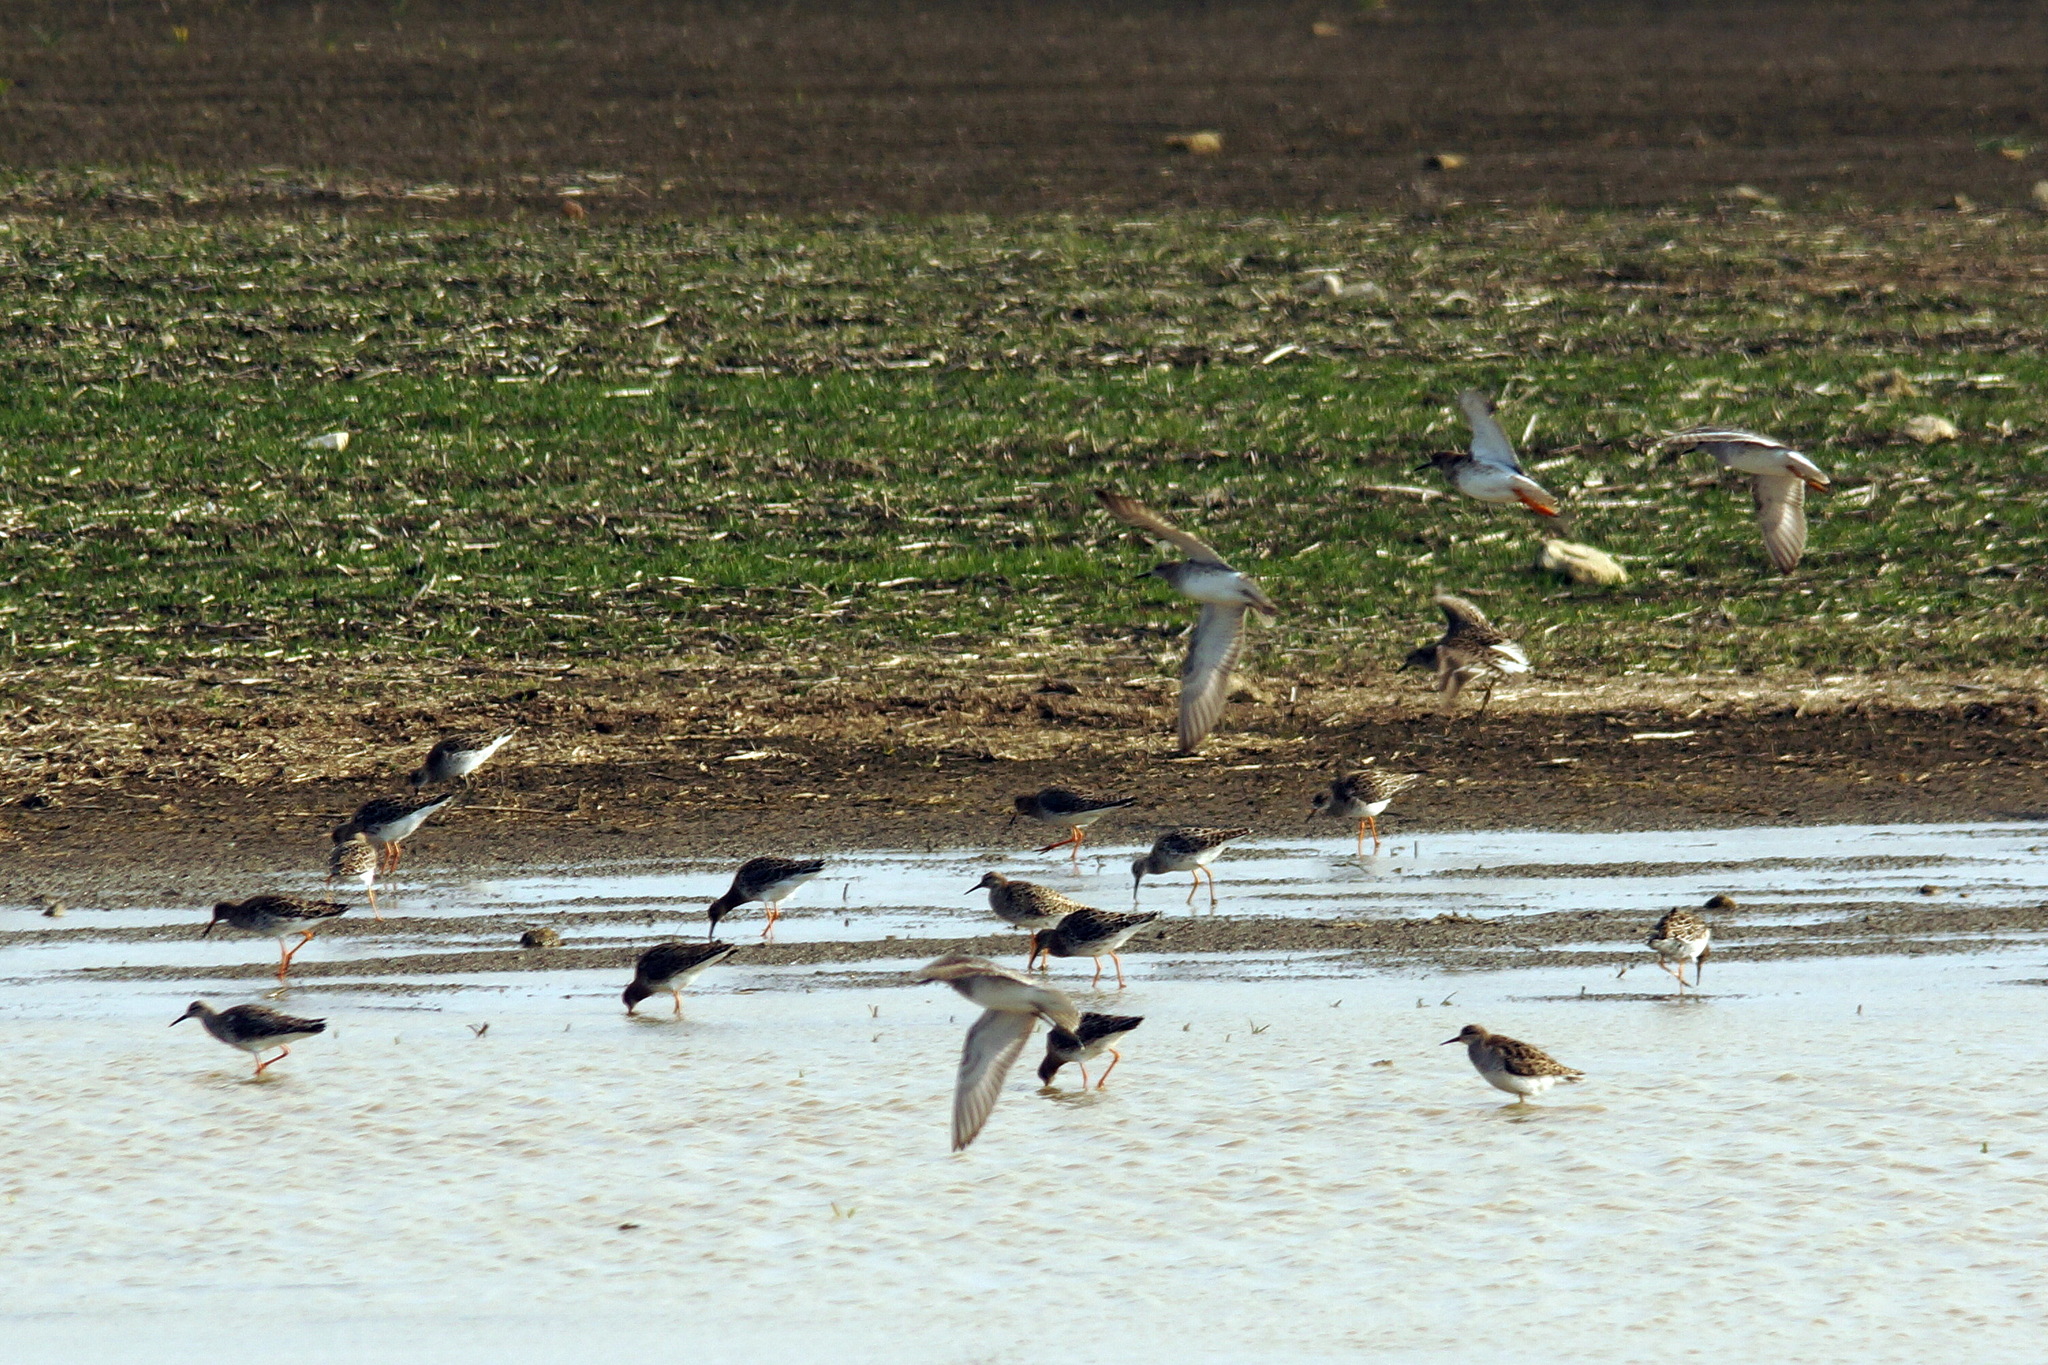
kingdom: Animalia
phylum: Chordata
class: Aves
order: Charadriiformes
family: Scolopacidae
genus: Calidris
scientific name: Calidris pugnax
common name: Ruff
